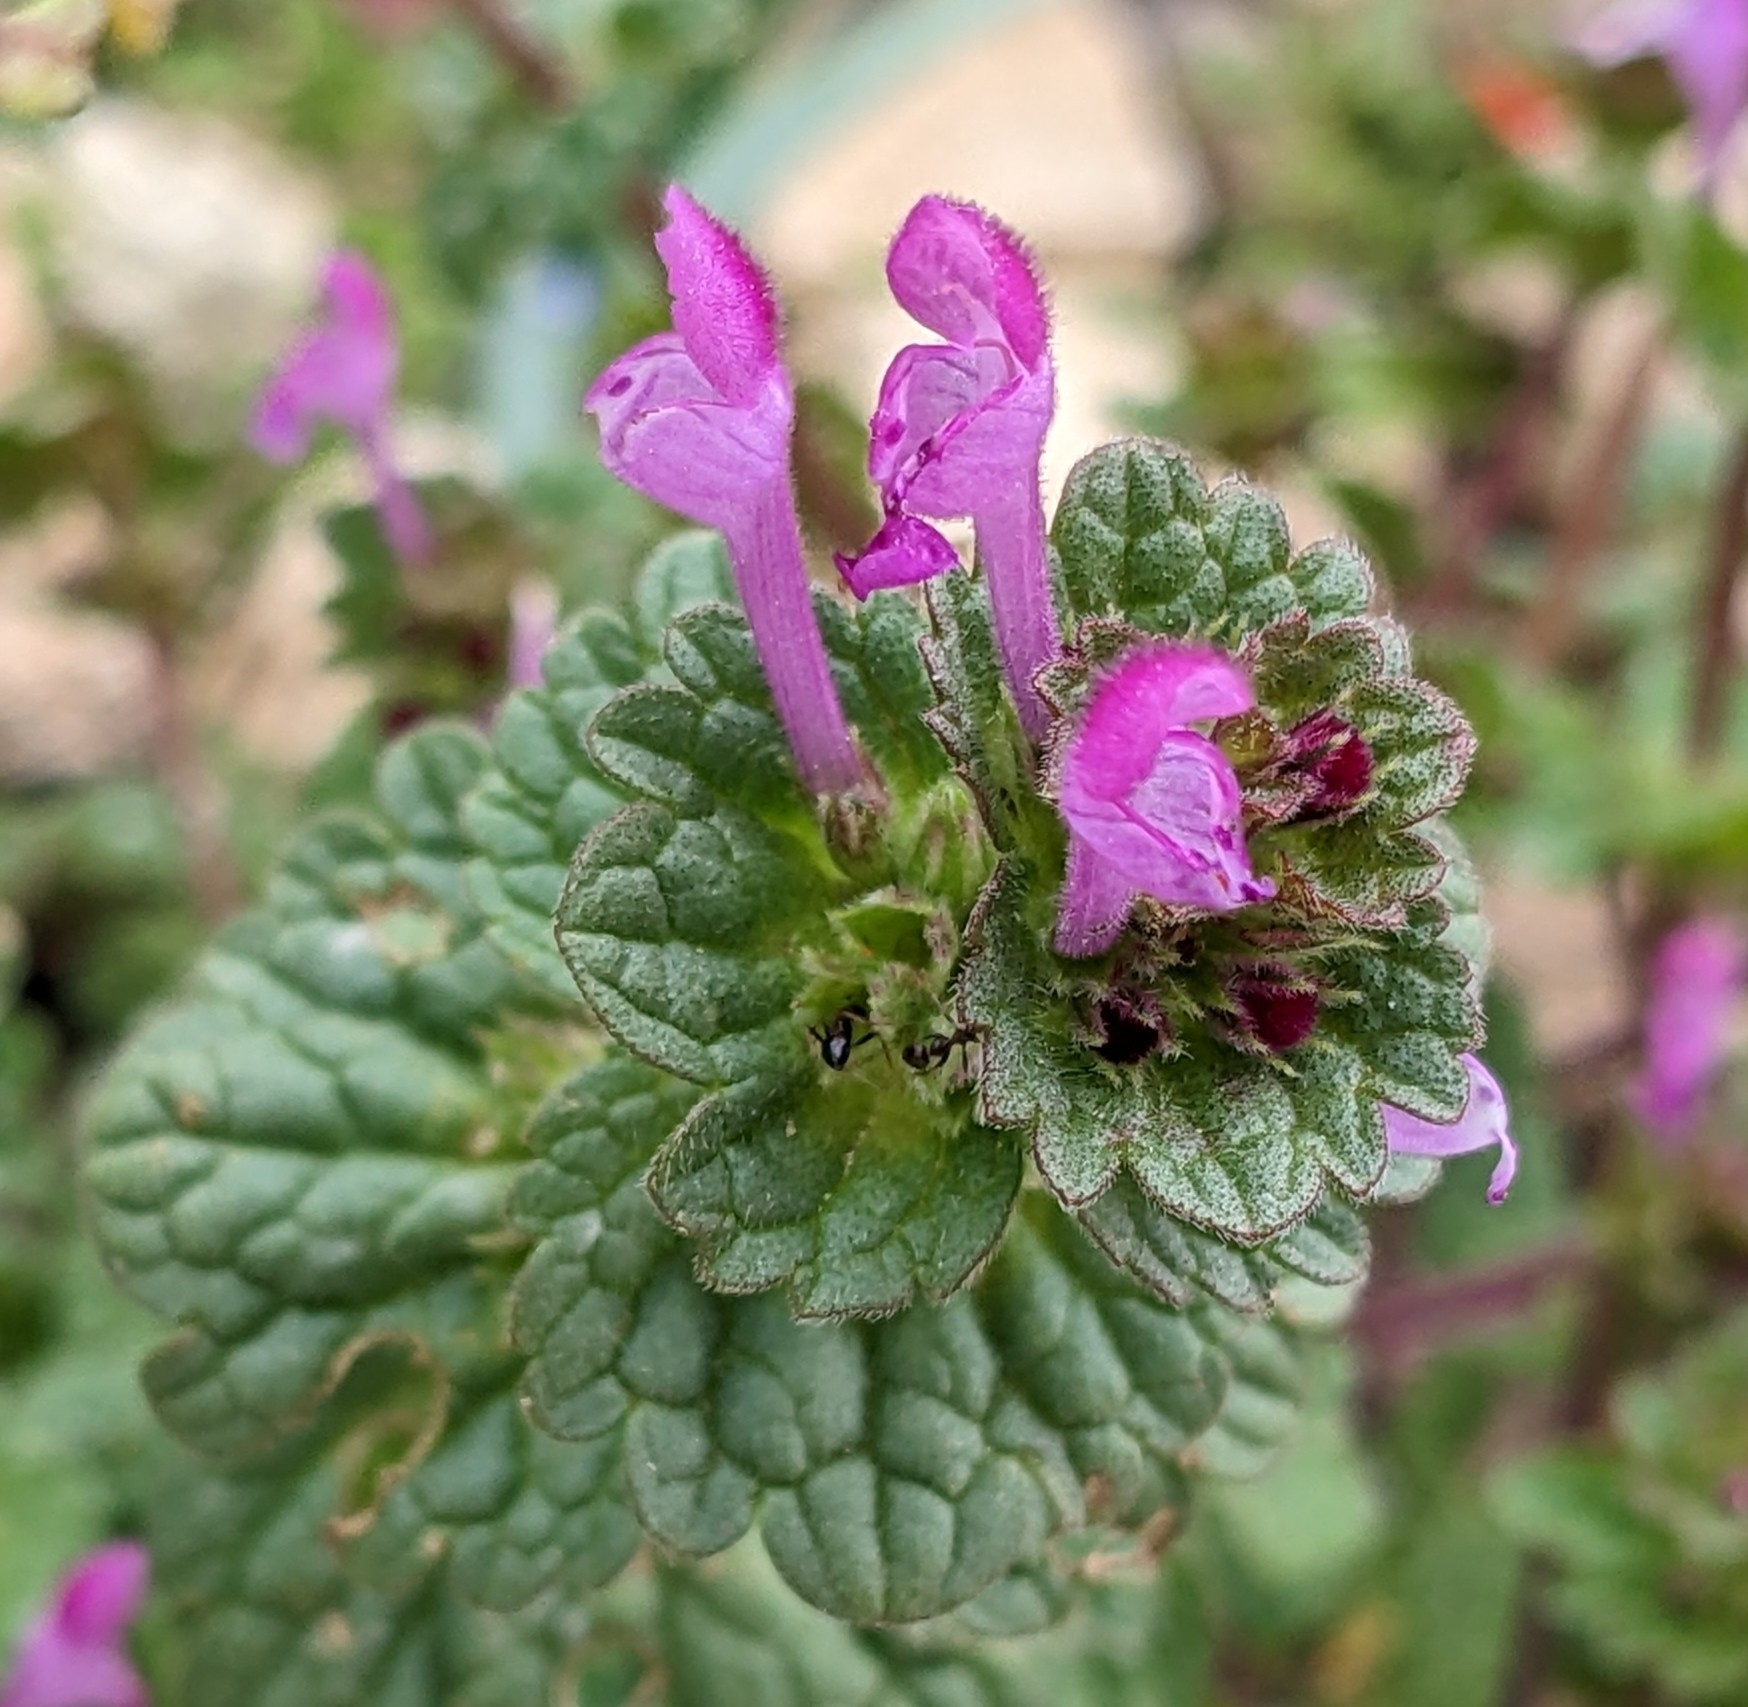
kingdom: Plantae
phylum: Tracheophyta
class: Magnoliopsida
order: Lamiales
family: Lamiaceae
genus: Lamium
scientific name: Lamium amplexicaule
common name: Henbit dead-nettle
